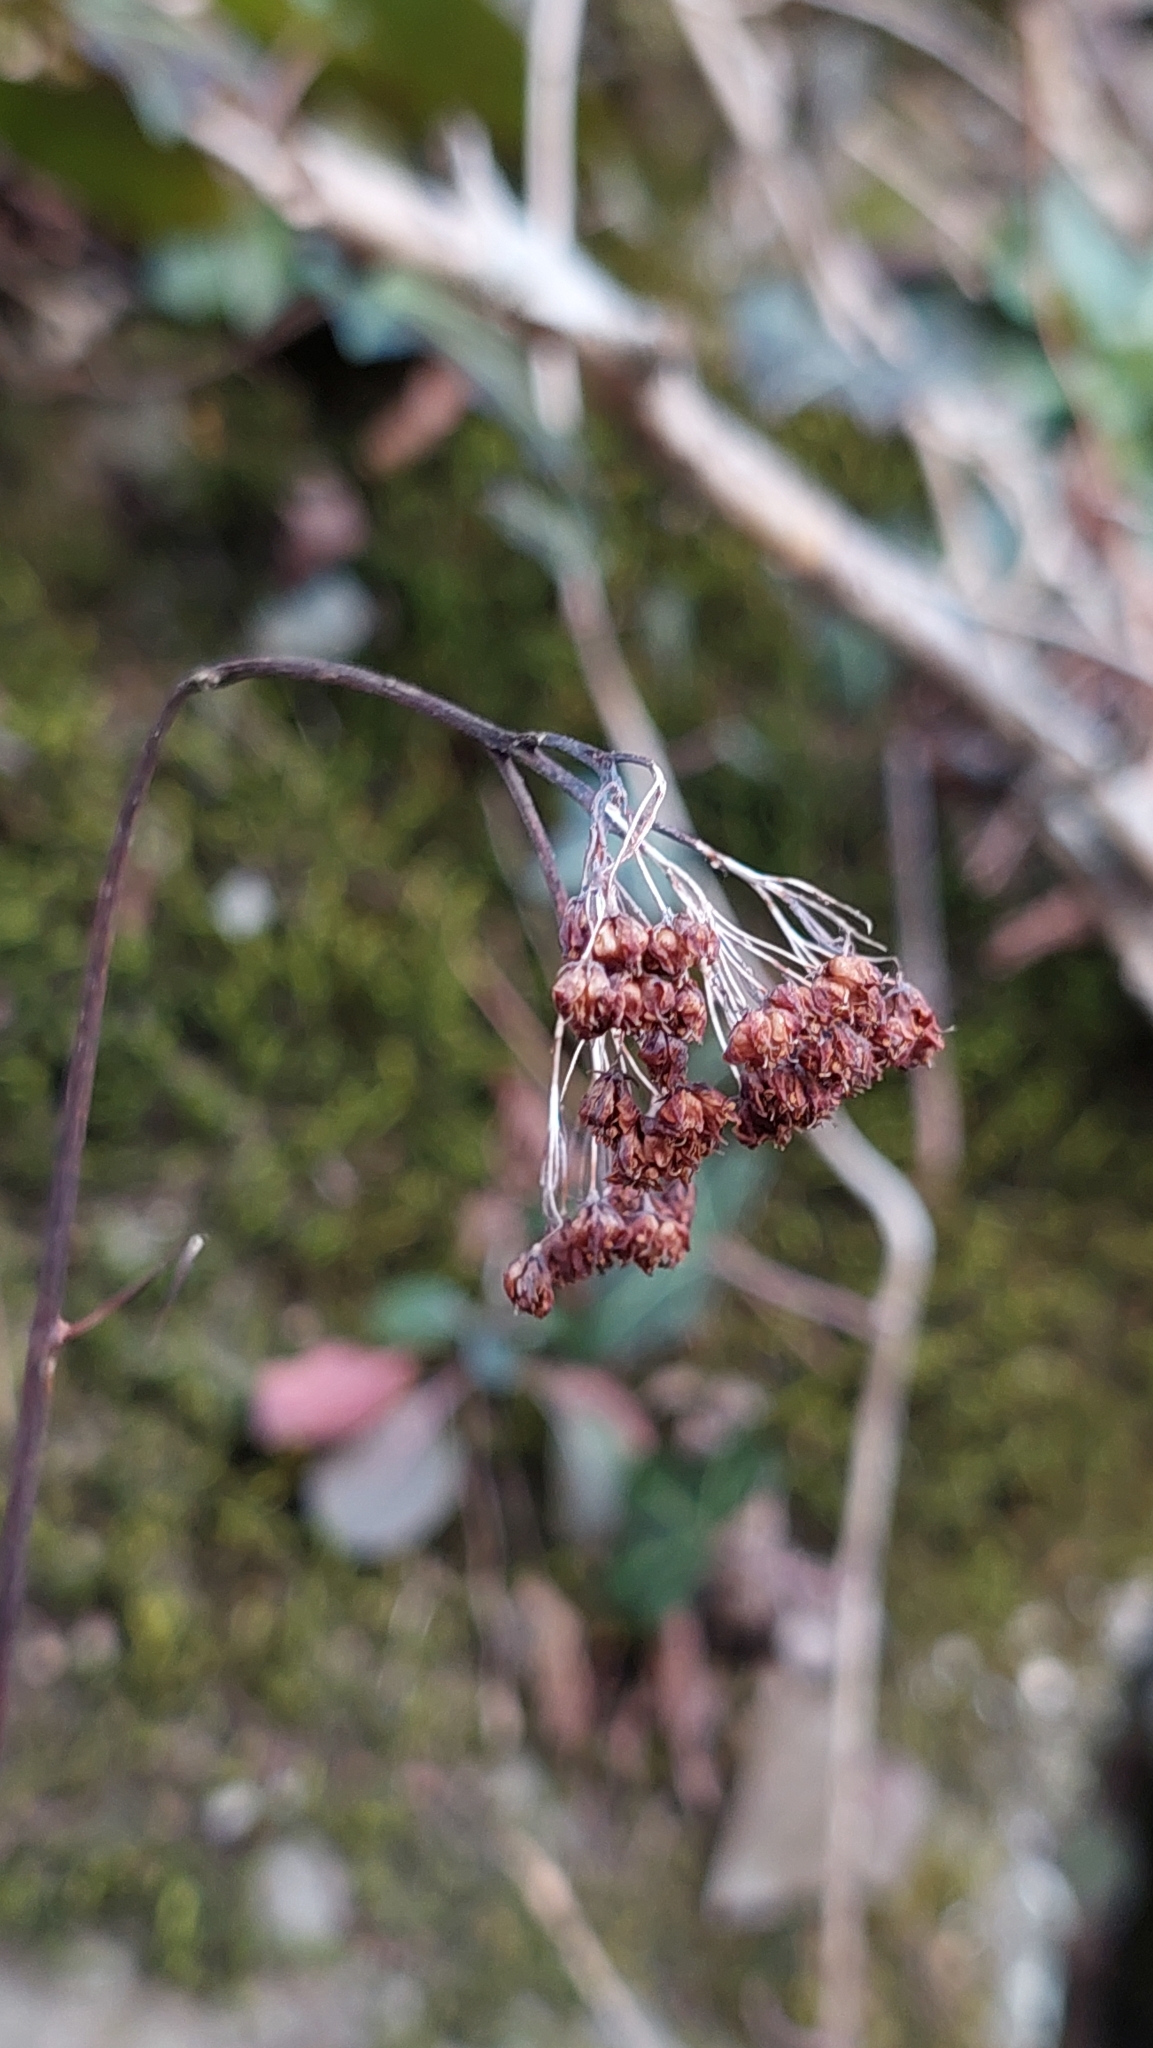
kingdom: Plantae
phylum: Tracheophyta
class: Magnoliopsida
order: Saxifragales
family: Crassulaceae
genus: Hylotelephium
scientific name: Hylotelephium maximum
